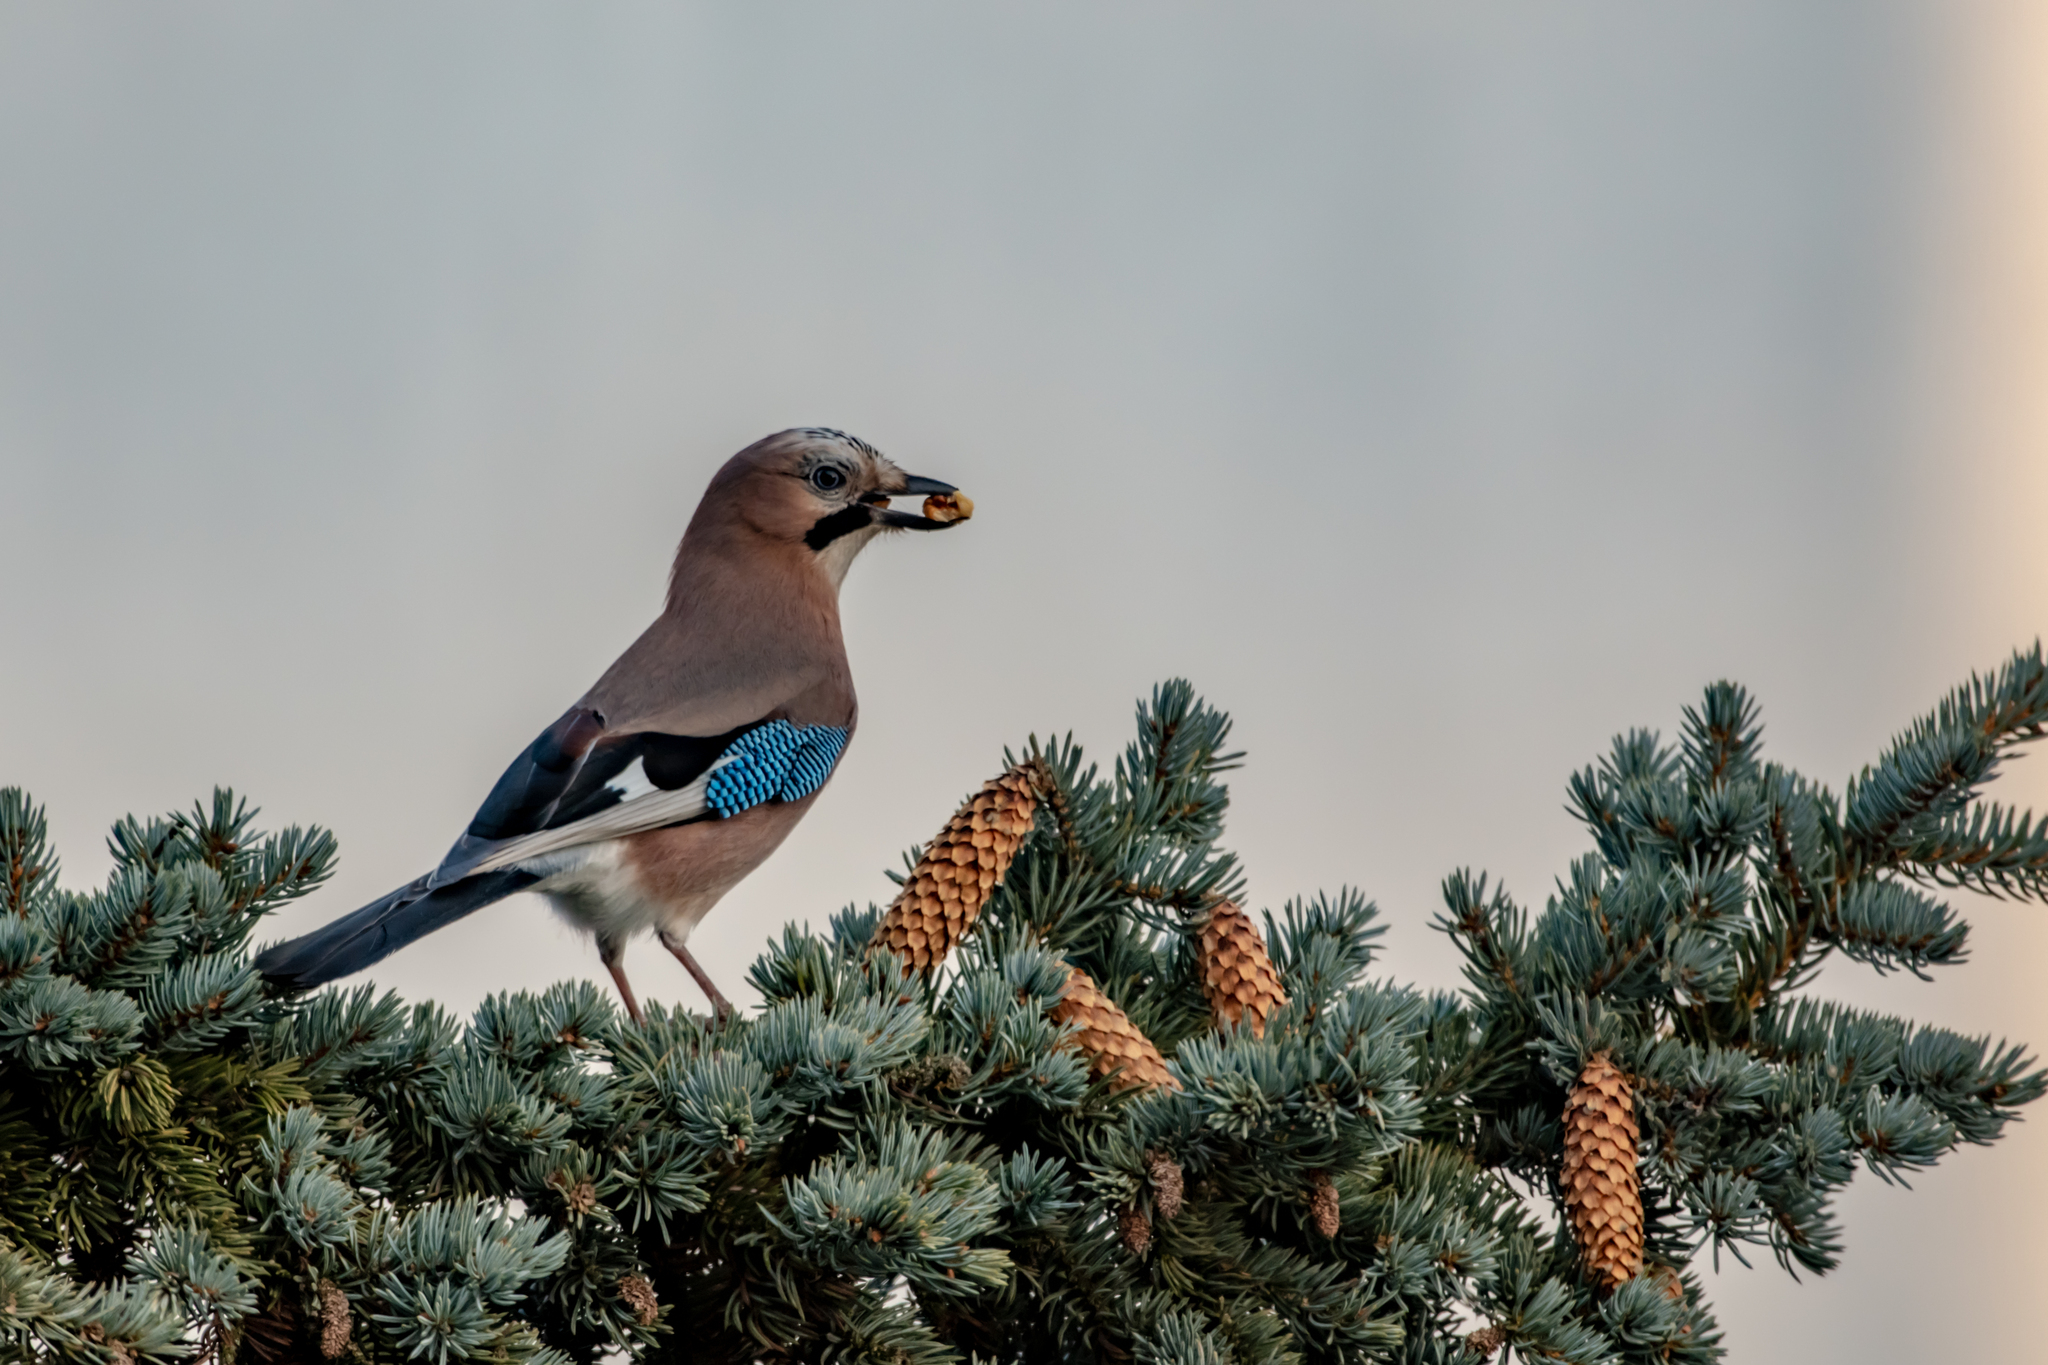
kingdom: Animalia
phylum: Chordata
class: Aves
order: Passeriformes
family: Corvidae
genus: Garrulus
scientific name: Garrulus glandarius
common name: Eurasian jay
